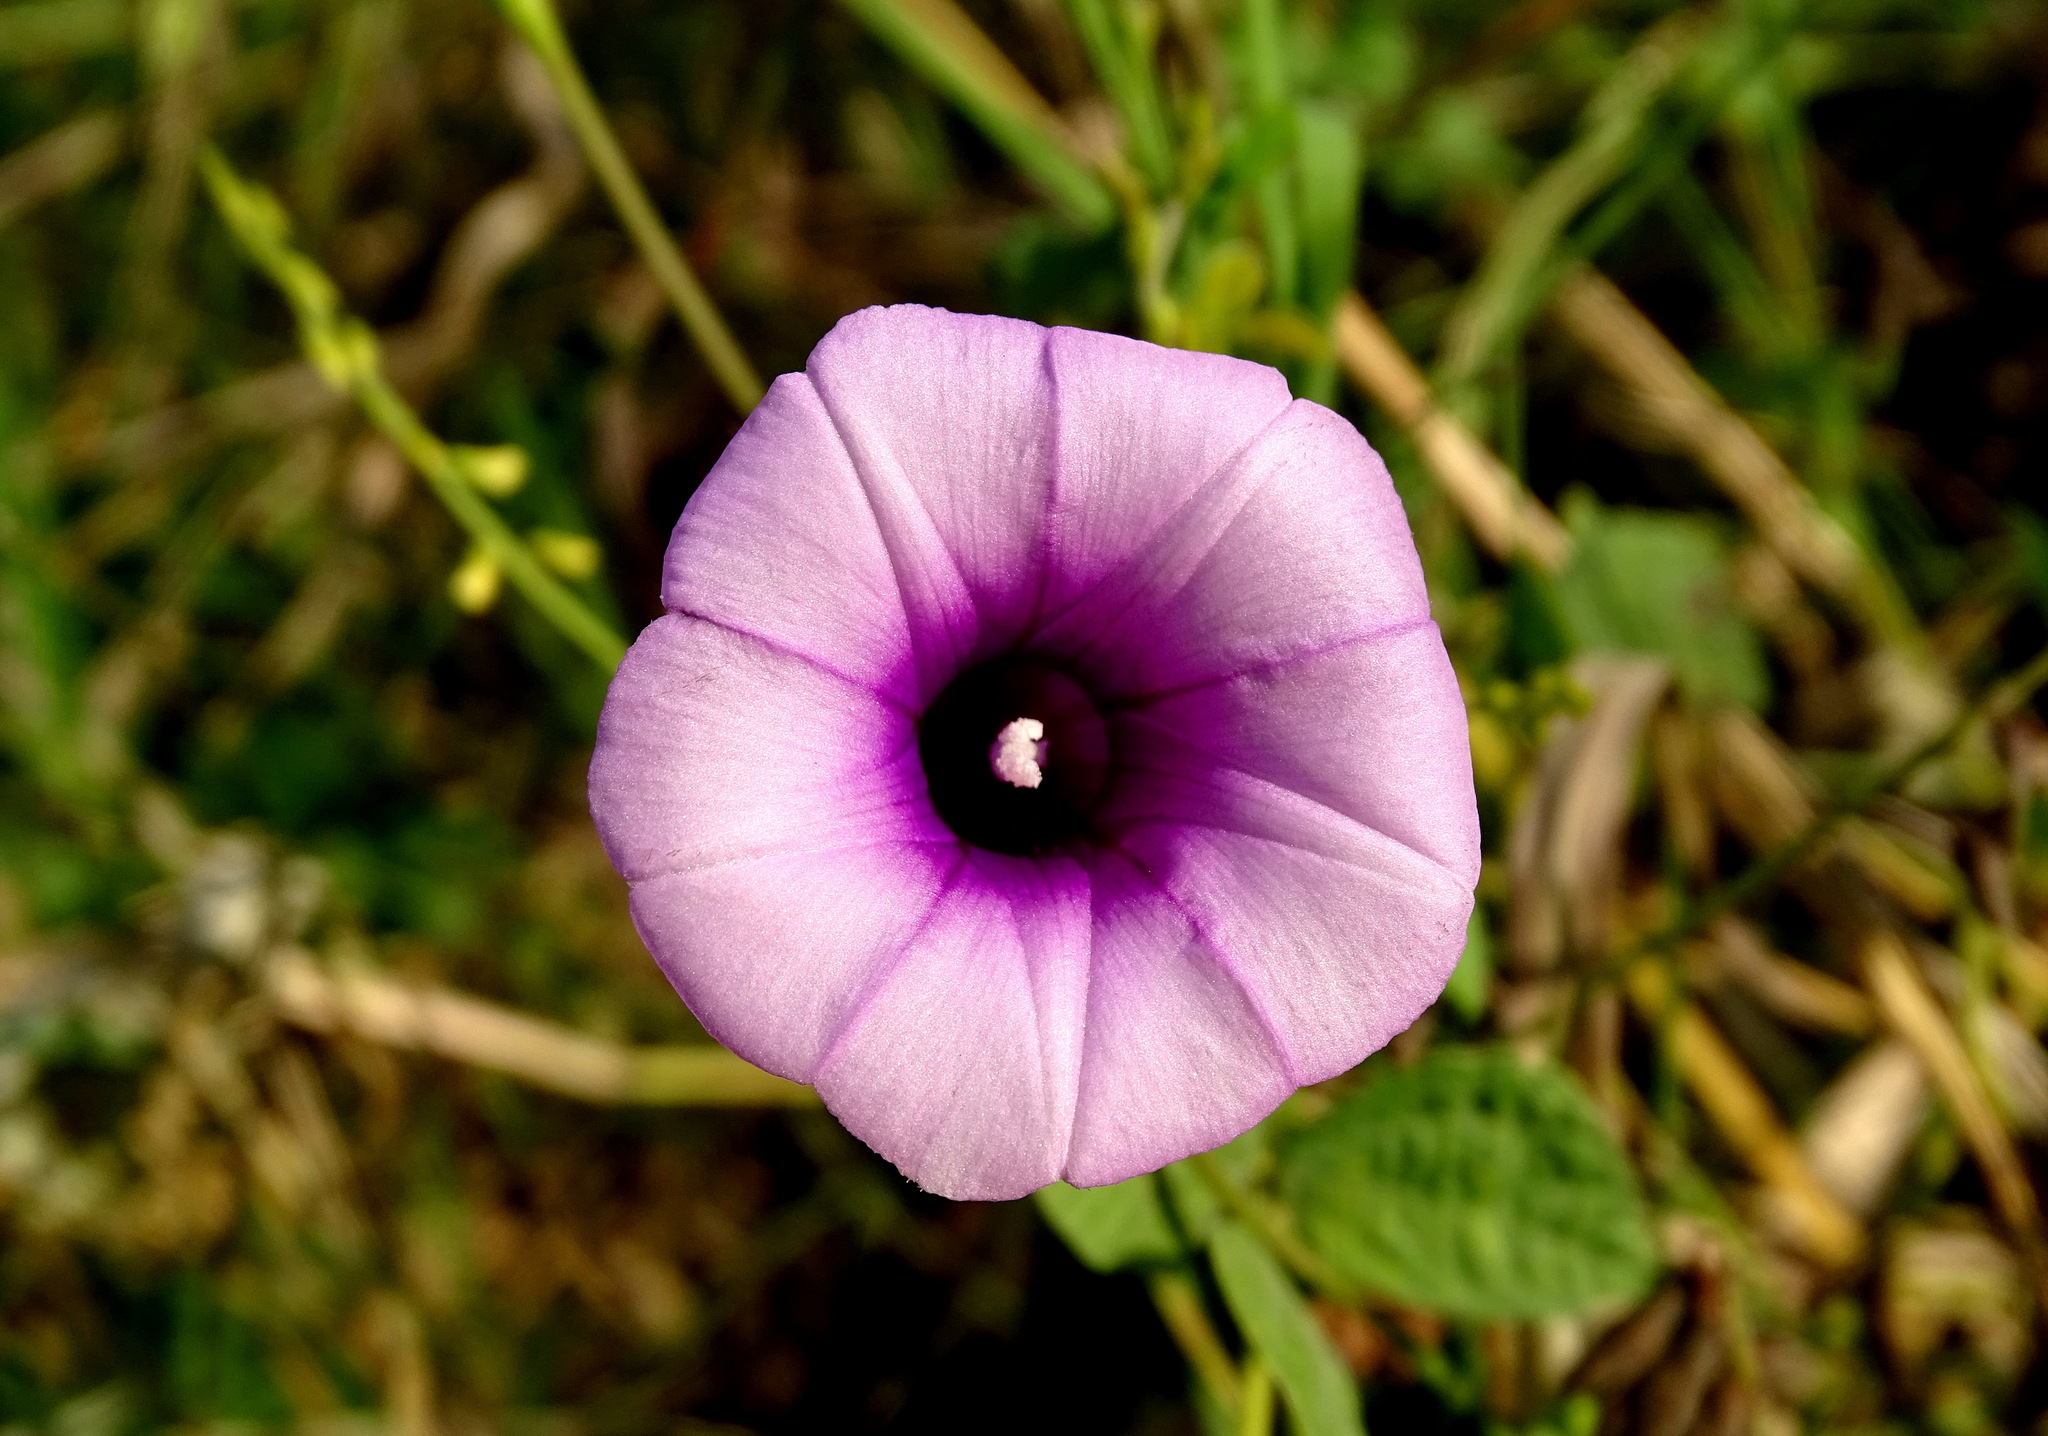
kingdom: Plantae
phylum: Tracheophyta
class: Magnoliopsida
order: Solanales
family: Convolvulaceae
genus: Ipomoea
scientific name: Ipomoea trifida
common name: Cotton morningglory
